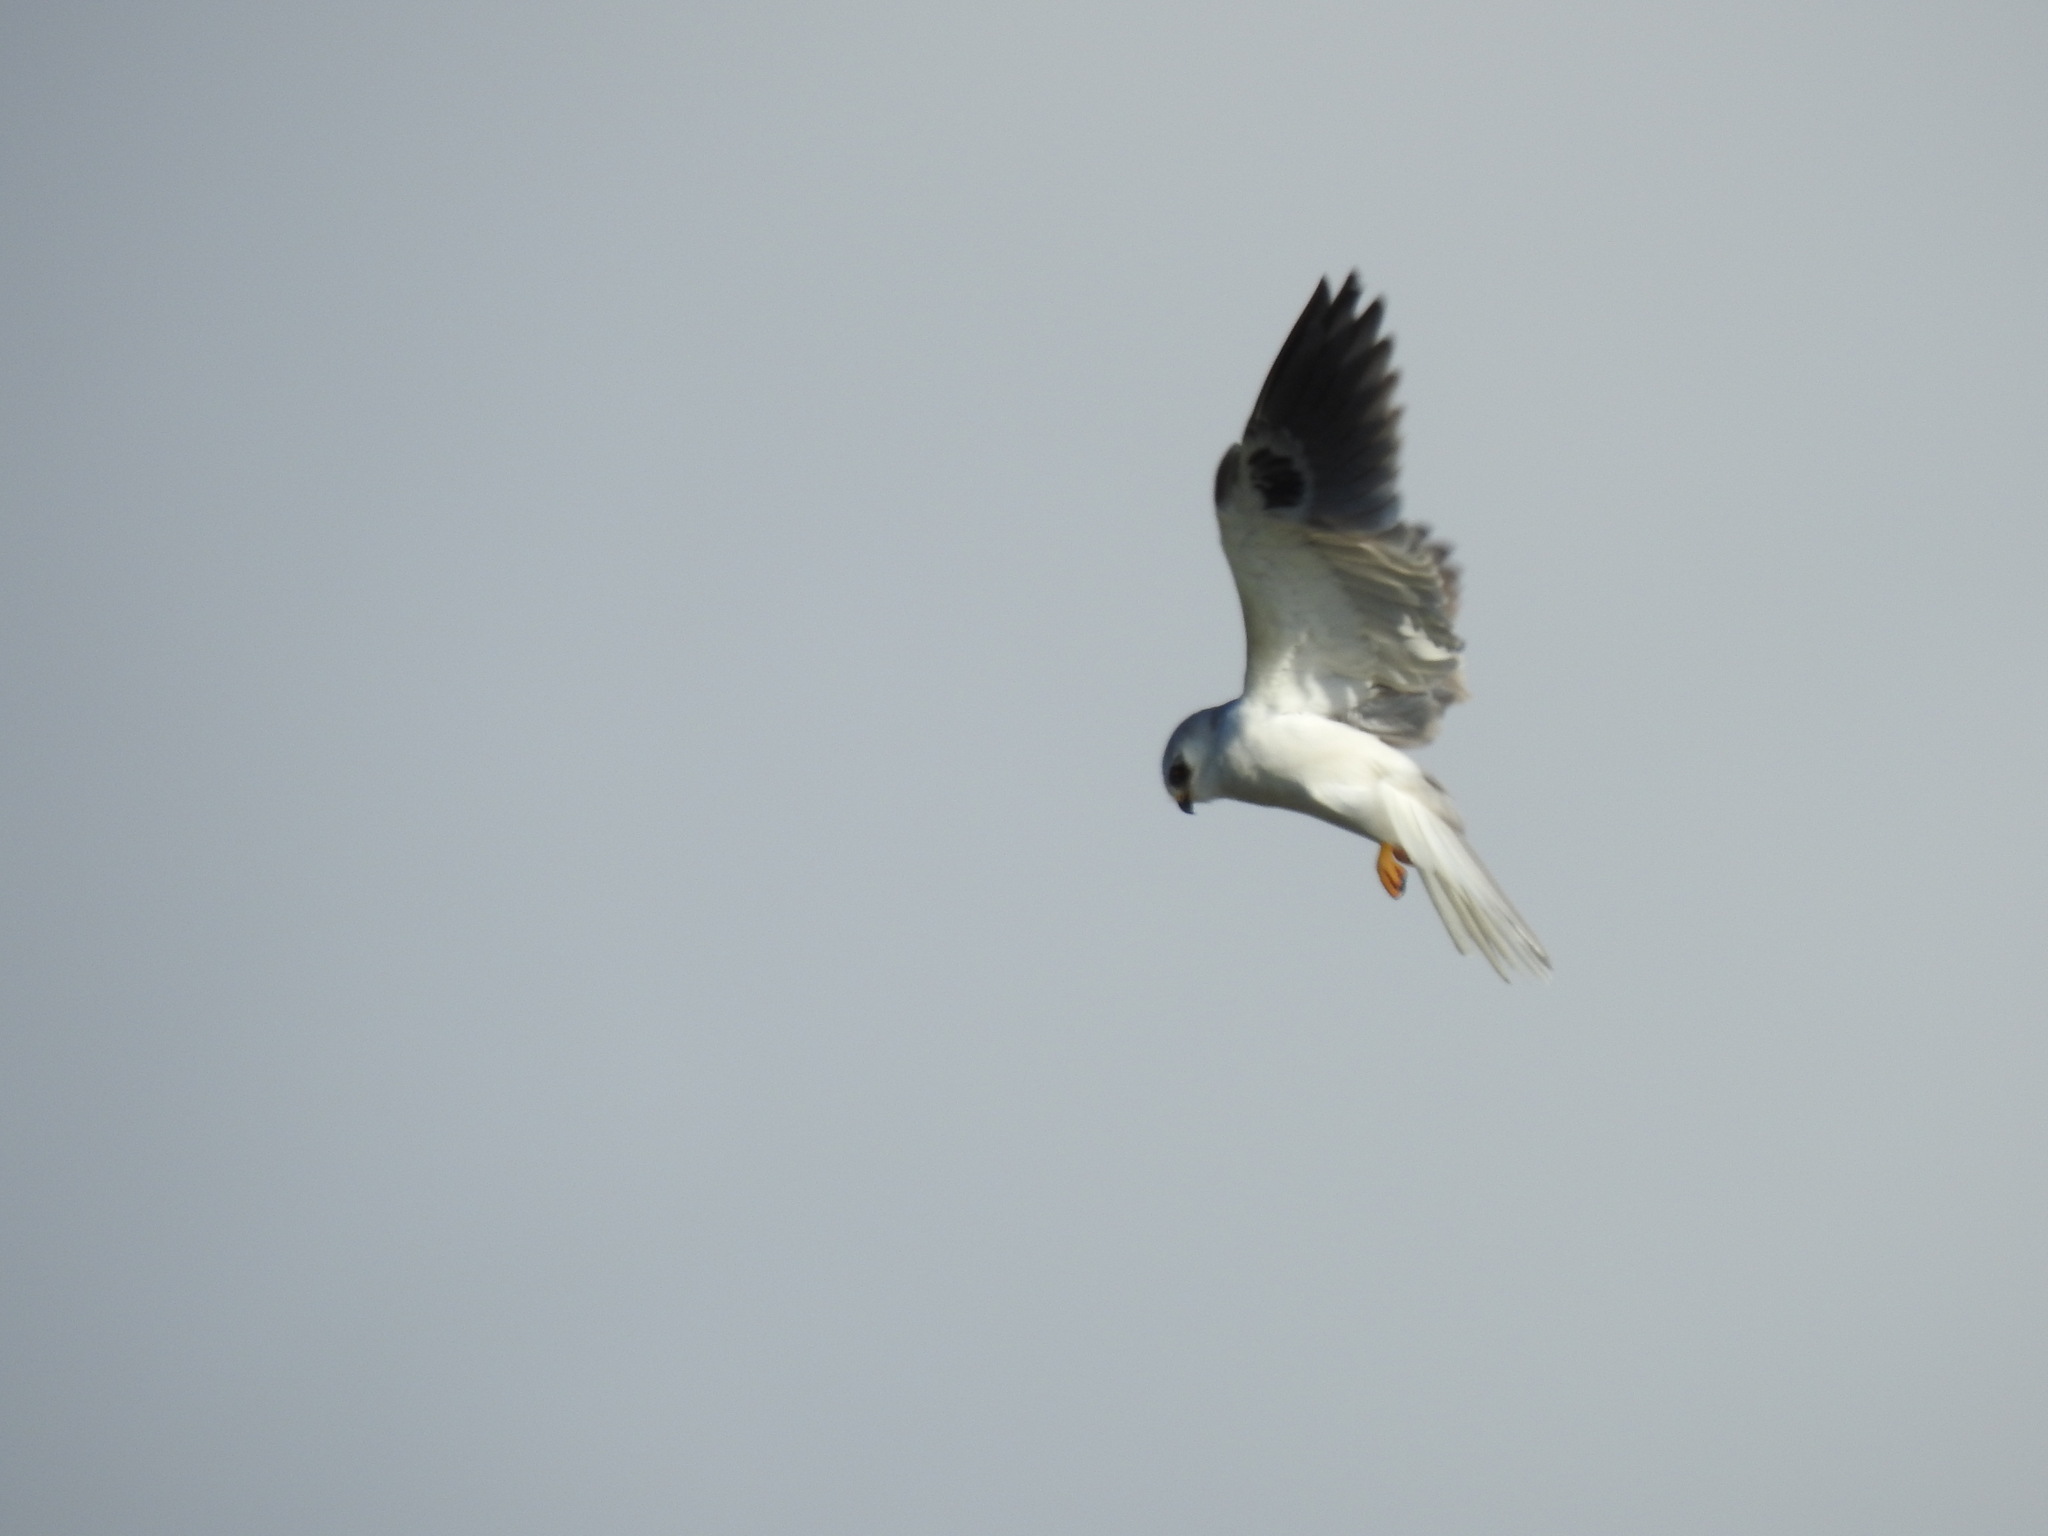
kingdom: Animalia
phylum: Chordata
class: Aves
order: Accipitriformes
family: Accipitridae
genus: Elanus
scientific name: Elanus leucurus
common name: White-tailed kite
